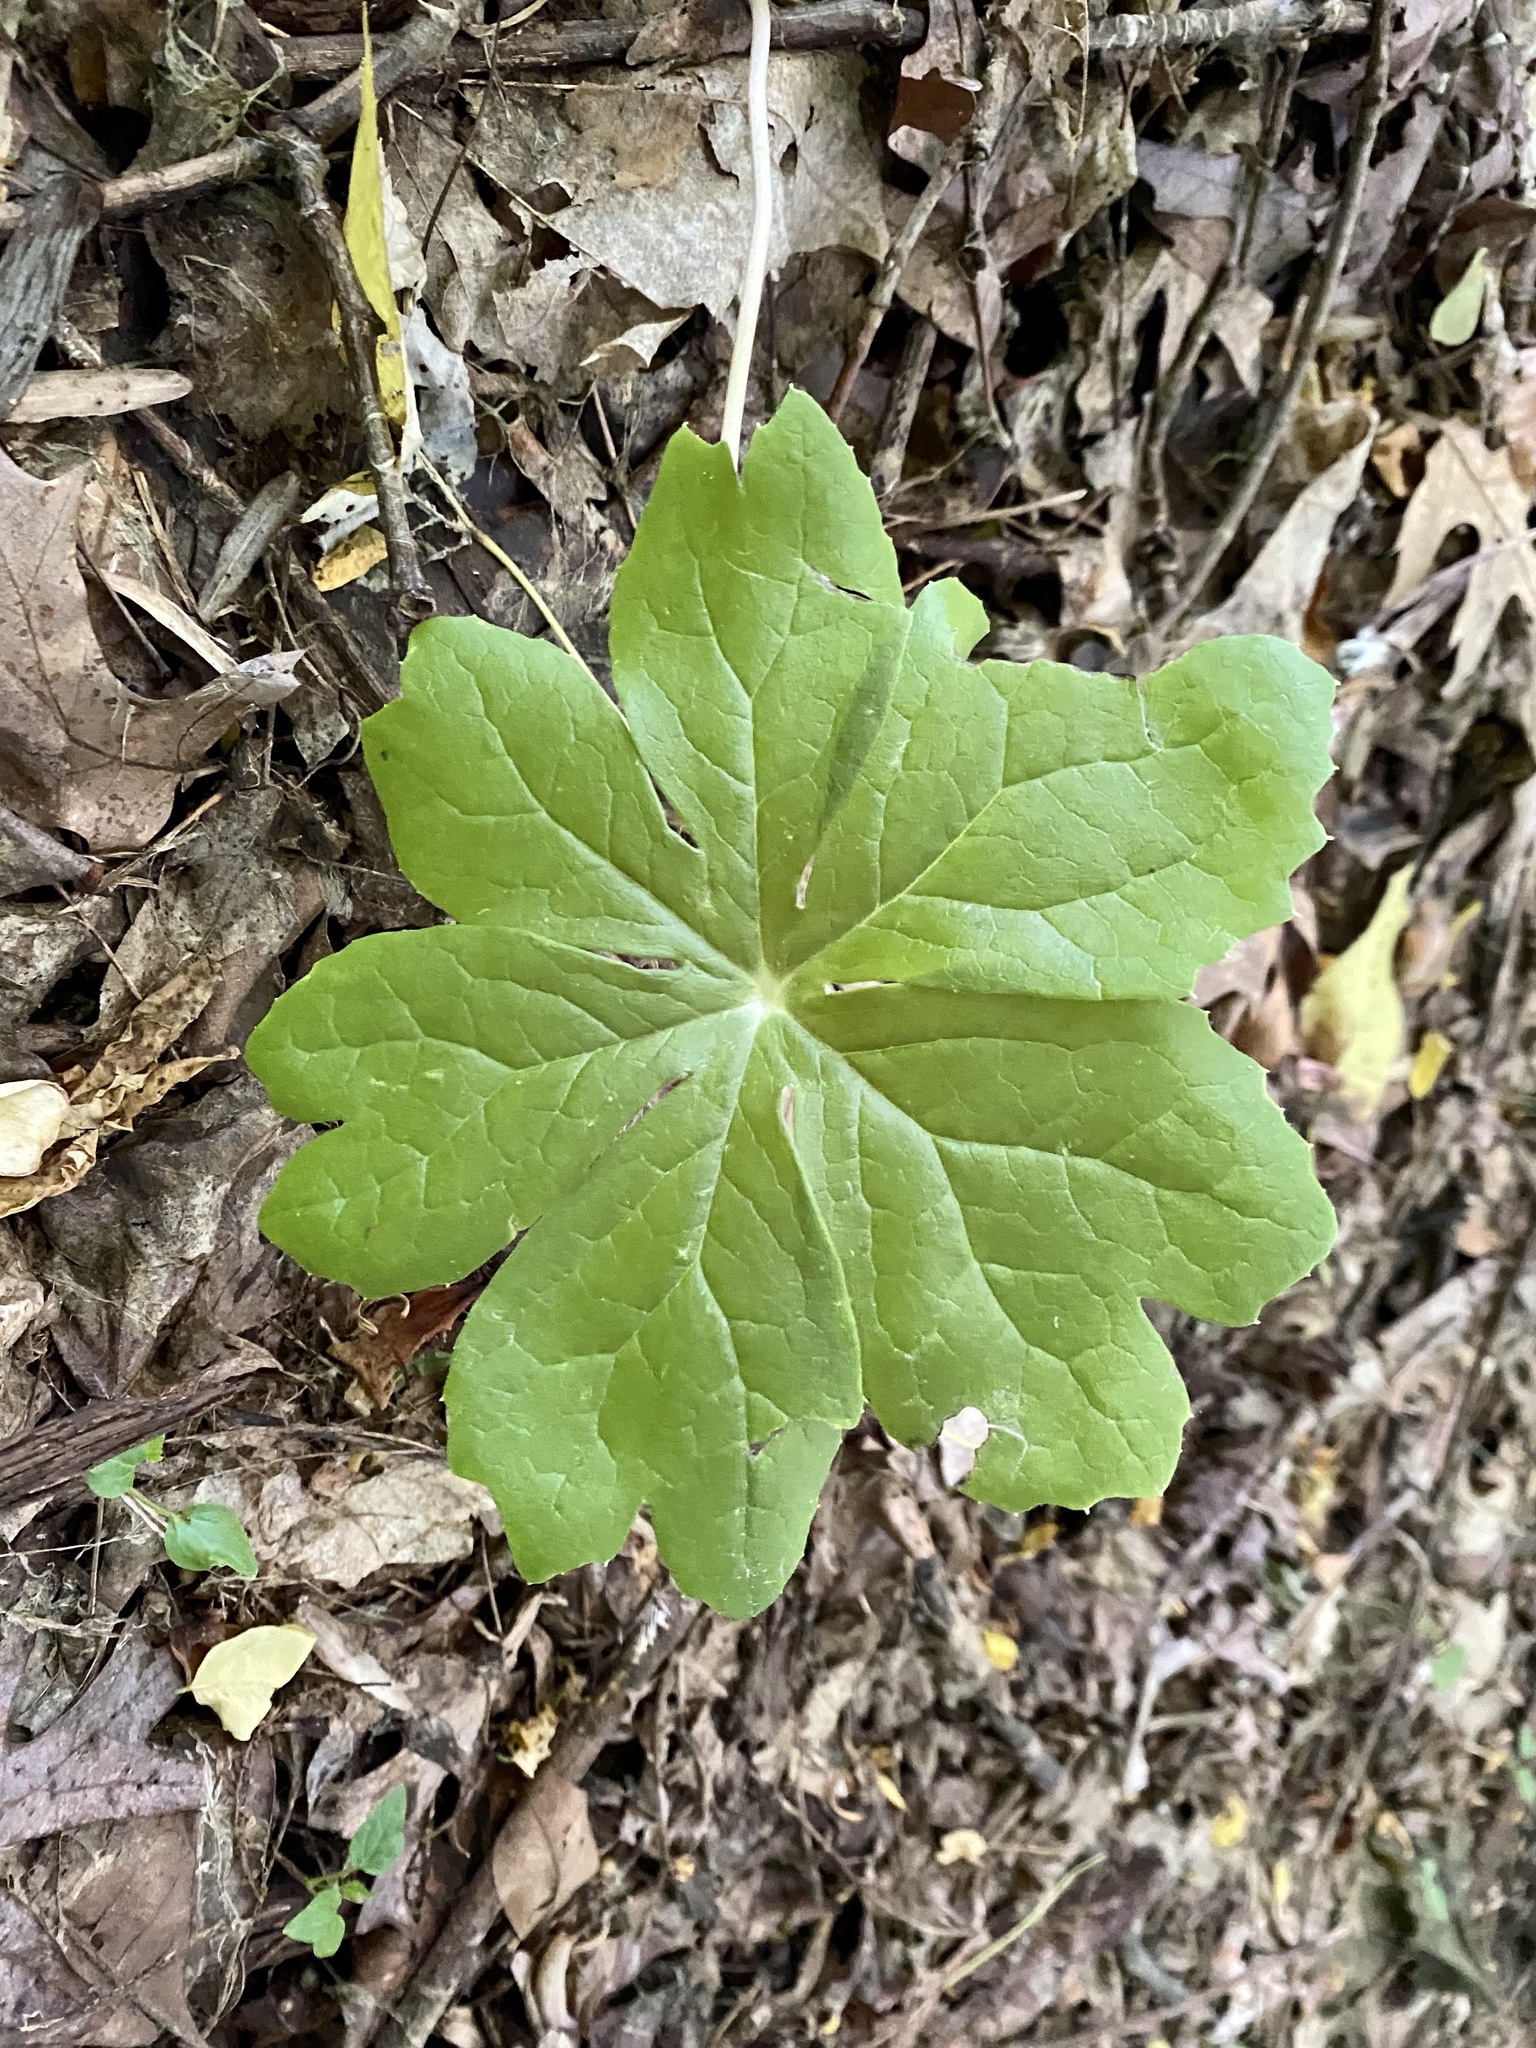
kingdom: Plantae
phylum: Tracheophyta
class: Magnoliopsida
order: Ranunculales
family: Berberidaceae
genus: Podophyllum
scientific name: Podophyllum peltatum
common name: Wild mandrake
